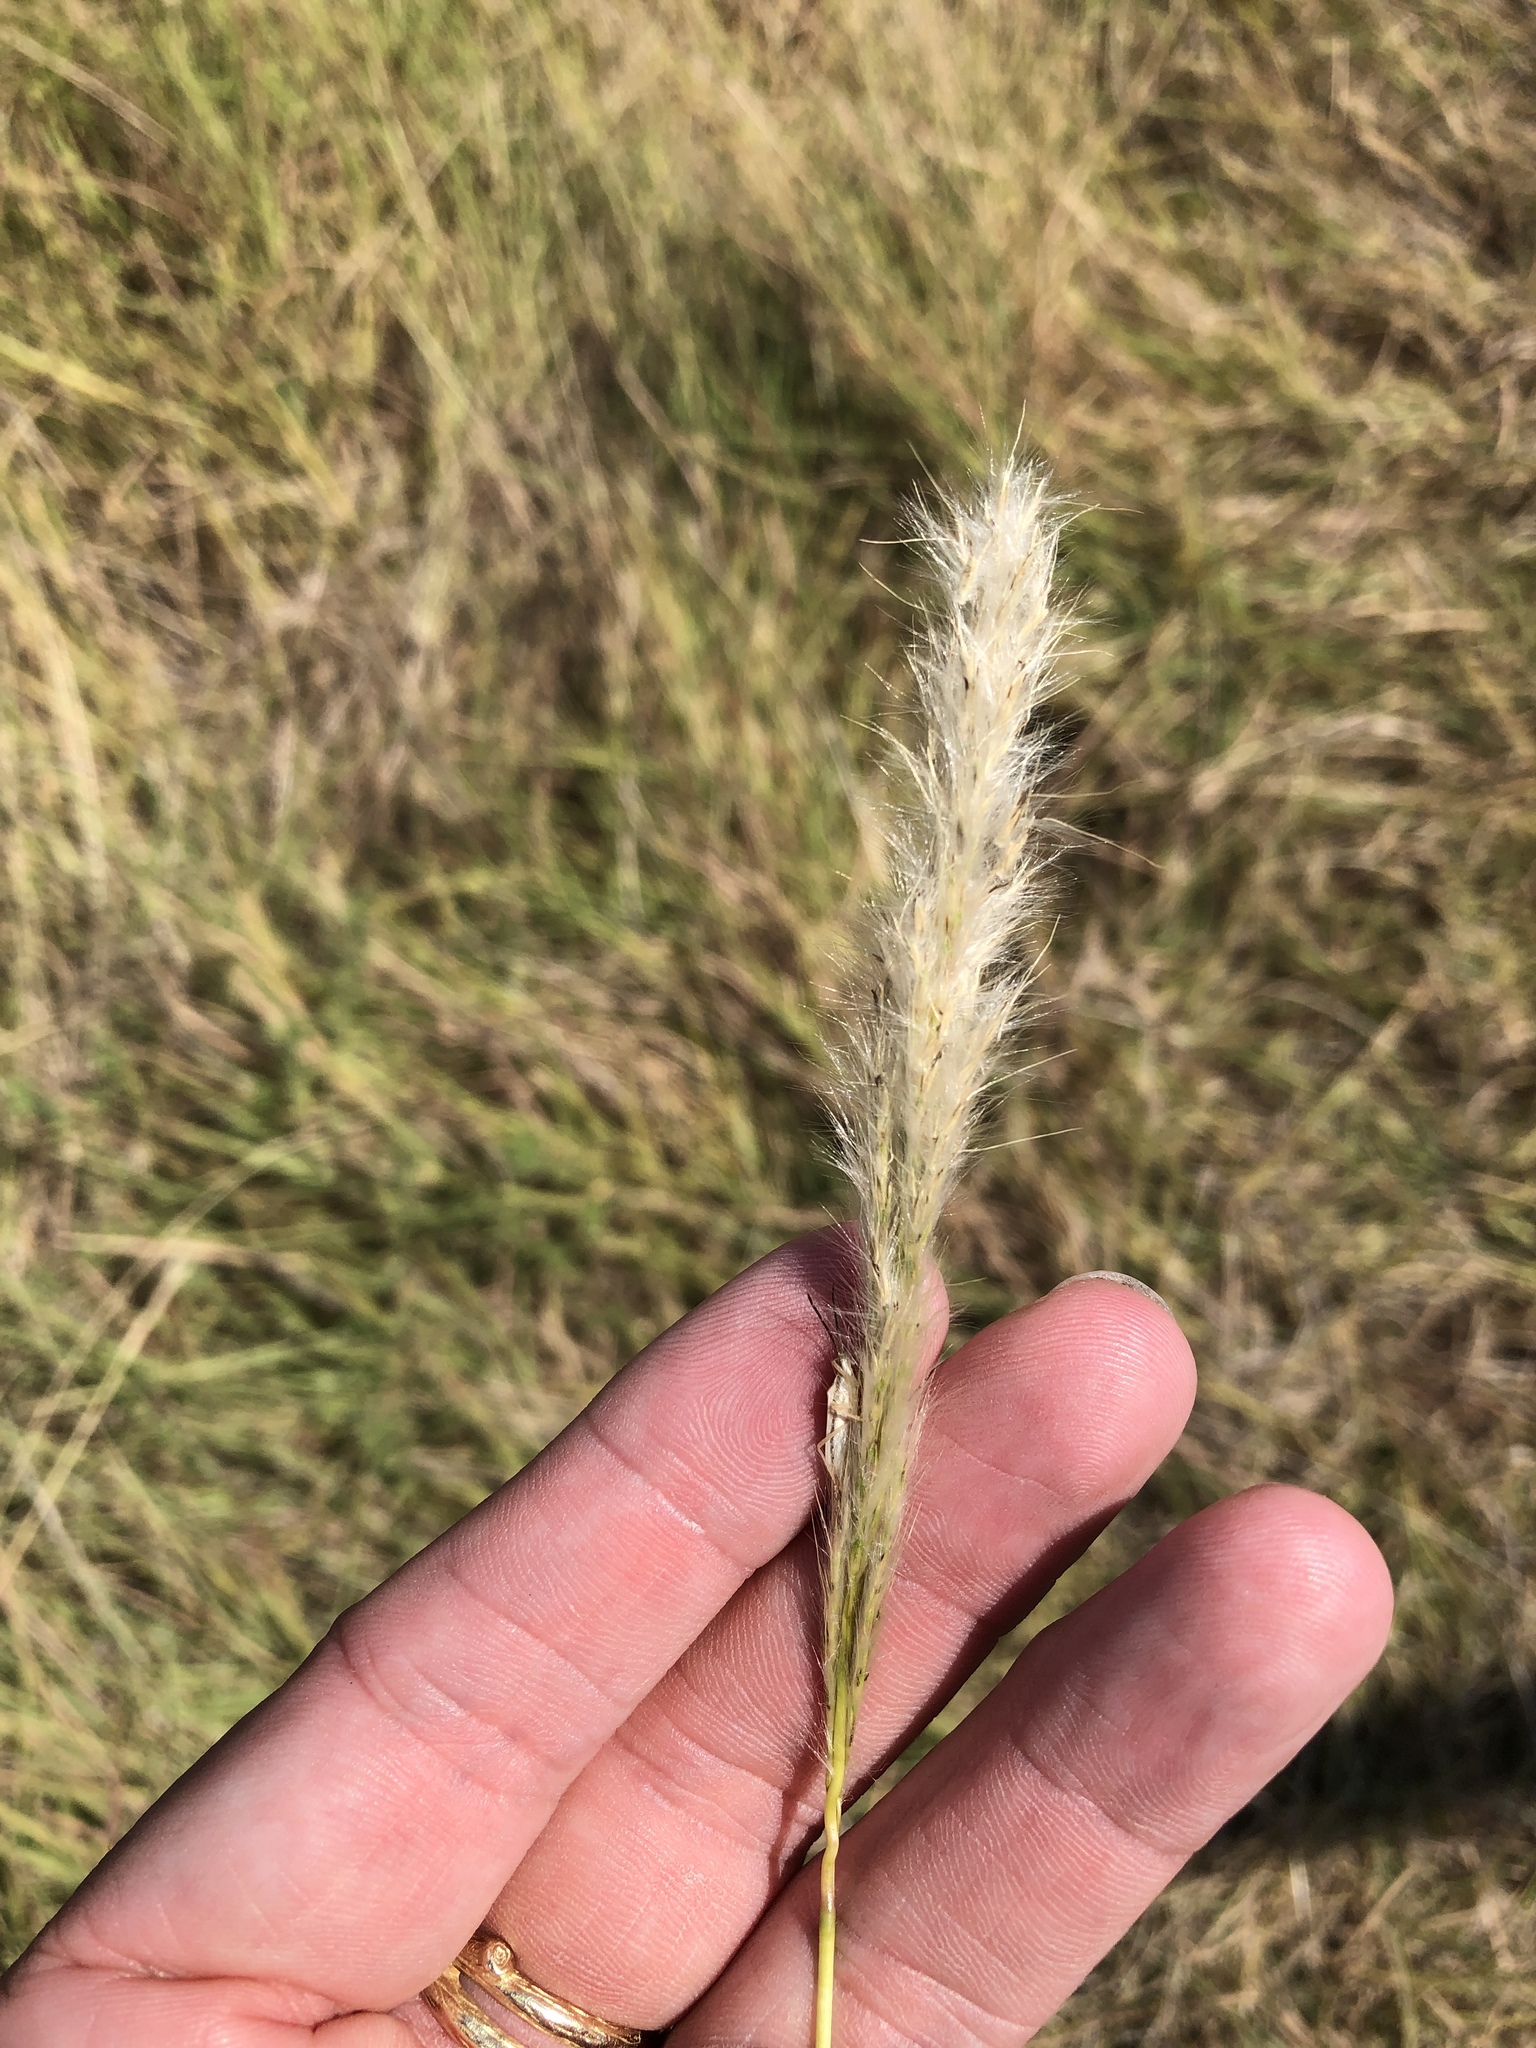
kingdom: Plantae
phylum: Tracheophyta
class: Liliopsida
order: Poales
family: Poaceae
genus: Bothriochloa
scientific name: Bothriochloa torreyana
